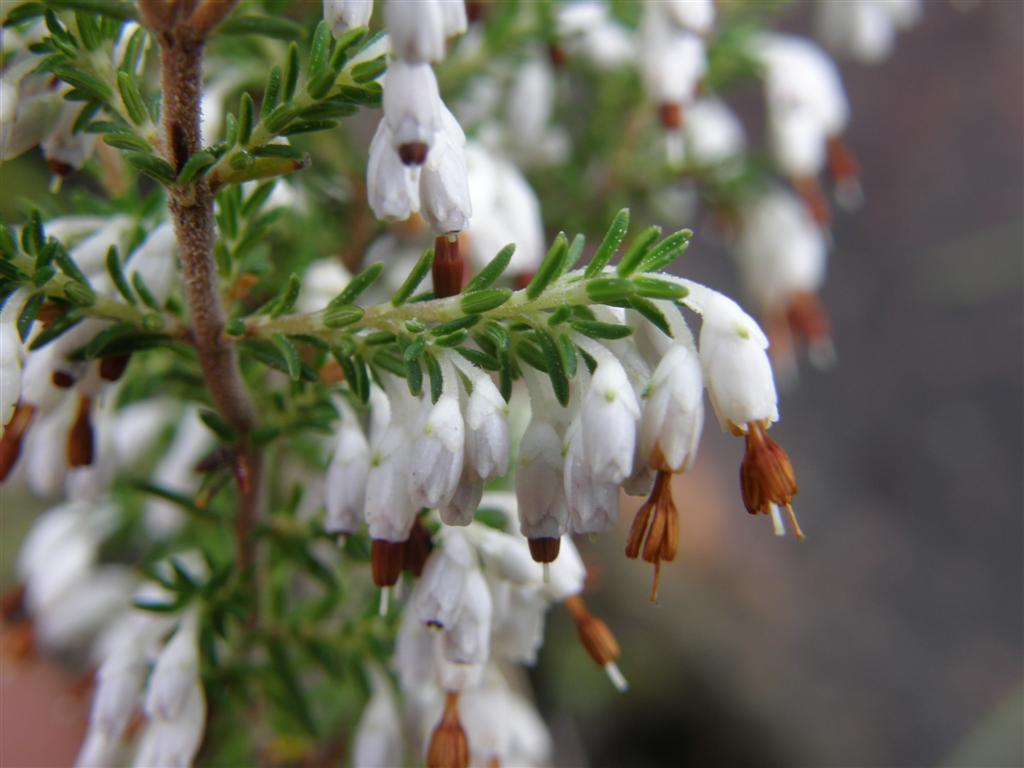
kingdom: Plantae
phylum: Tracheophyta
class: Magnoliopsida
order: Ericales
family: Ericaceae
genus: Erica
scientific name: Erica imbricata
